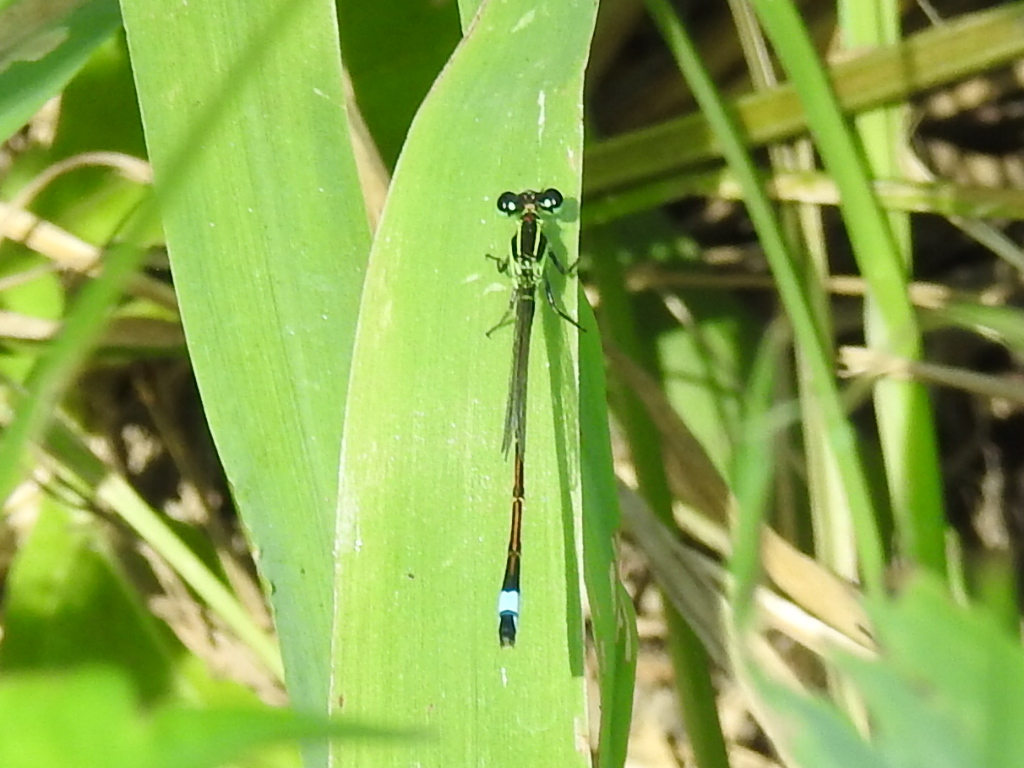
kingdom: Animalia
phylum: Arthropoda
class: Insecta
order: Odonata
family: Coenagrionidae
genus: Ischnura
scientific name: Ischnura ramburii
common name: Rambur's forktail
